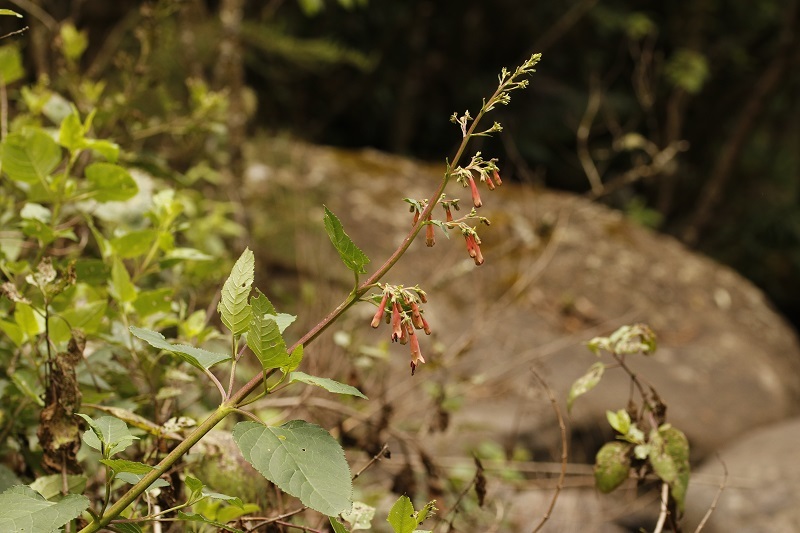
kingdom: Plantae
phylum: Tracheophyta
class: Magnoliopsida
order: Lamiales
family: Scrophulariaceae
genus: Phygelius
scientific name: Phygelius aequalis
